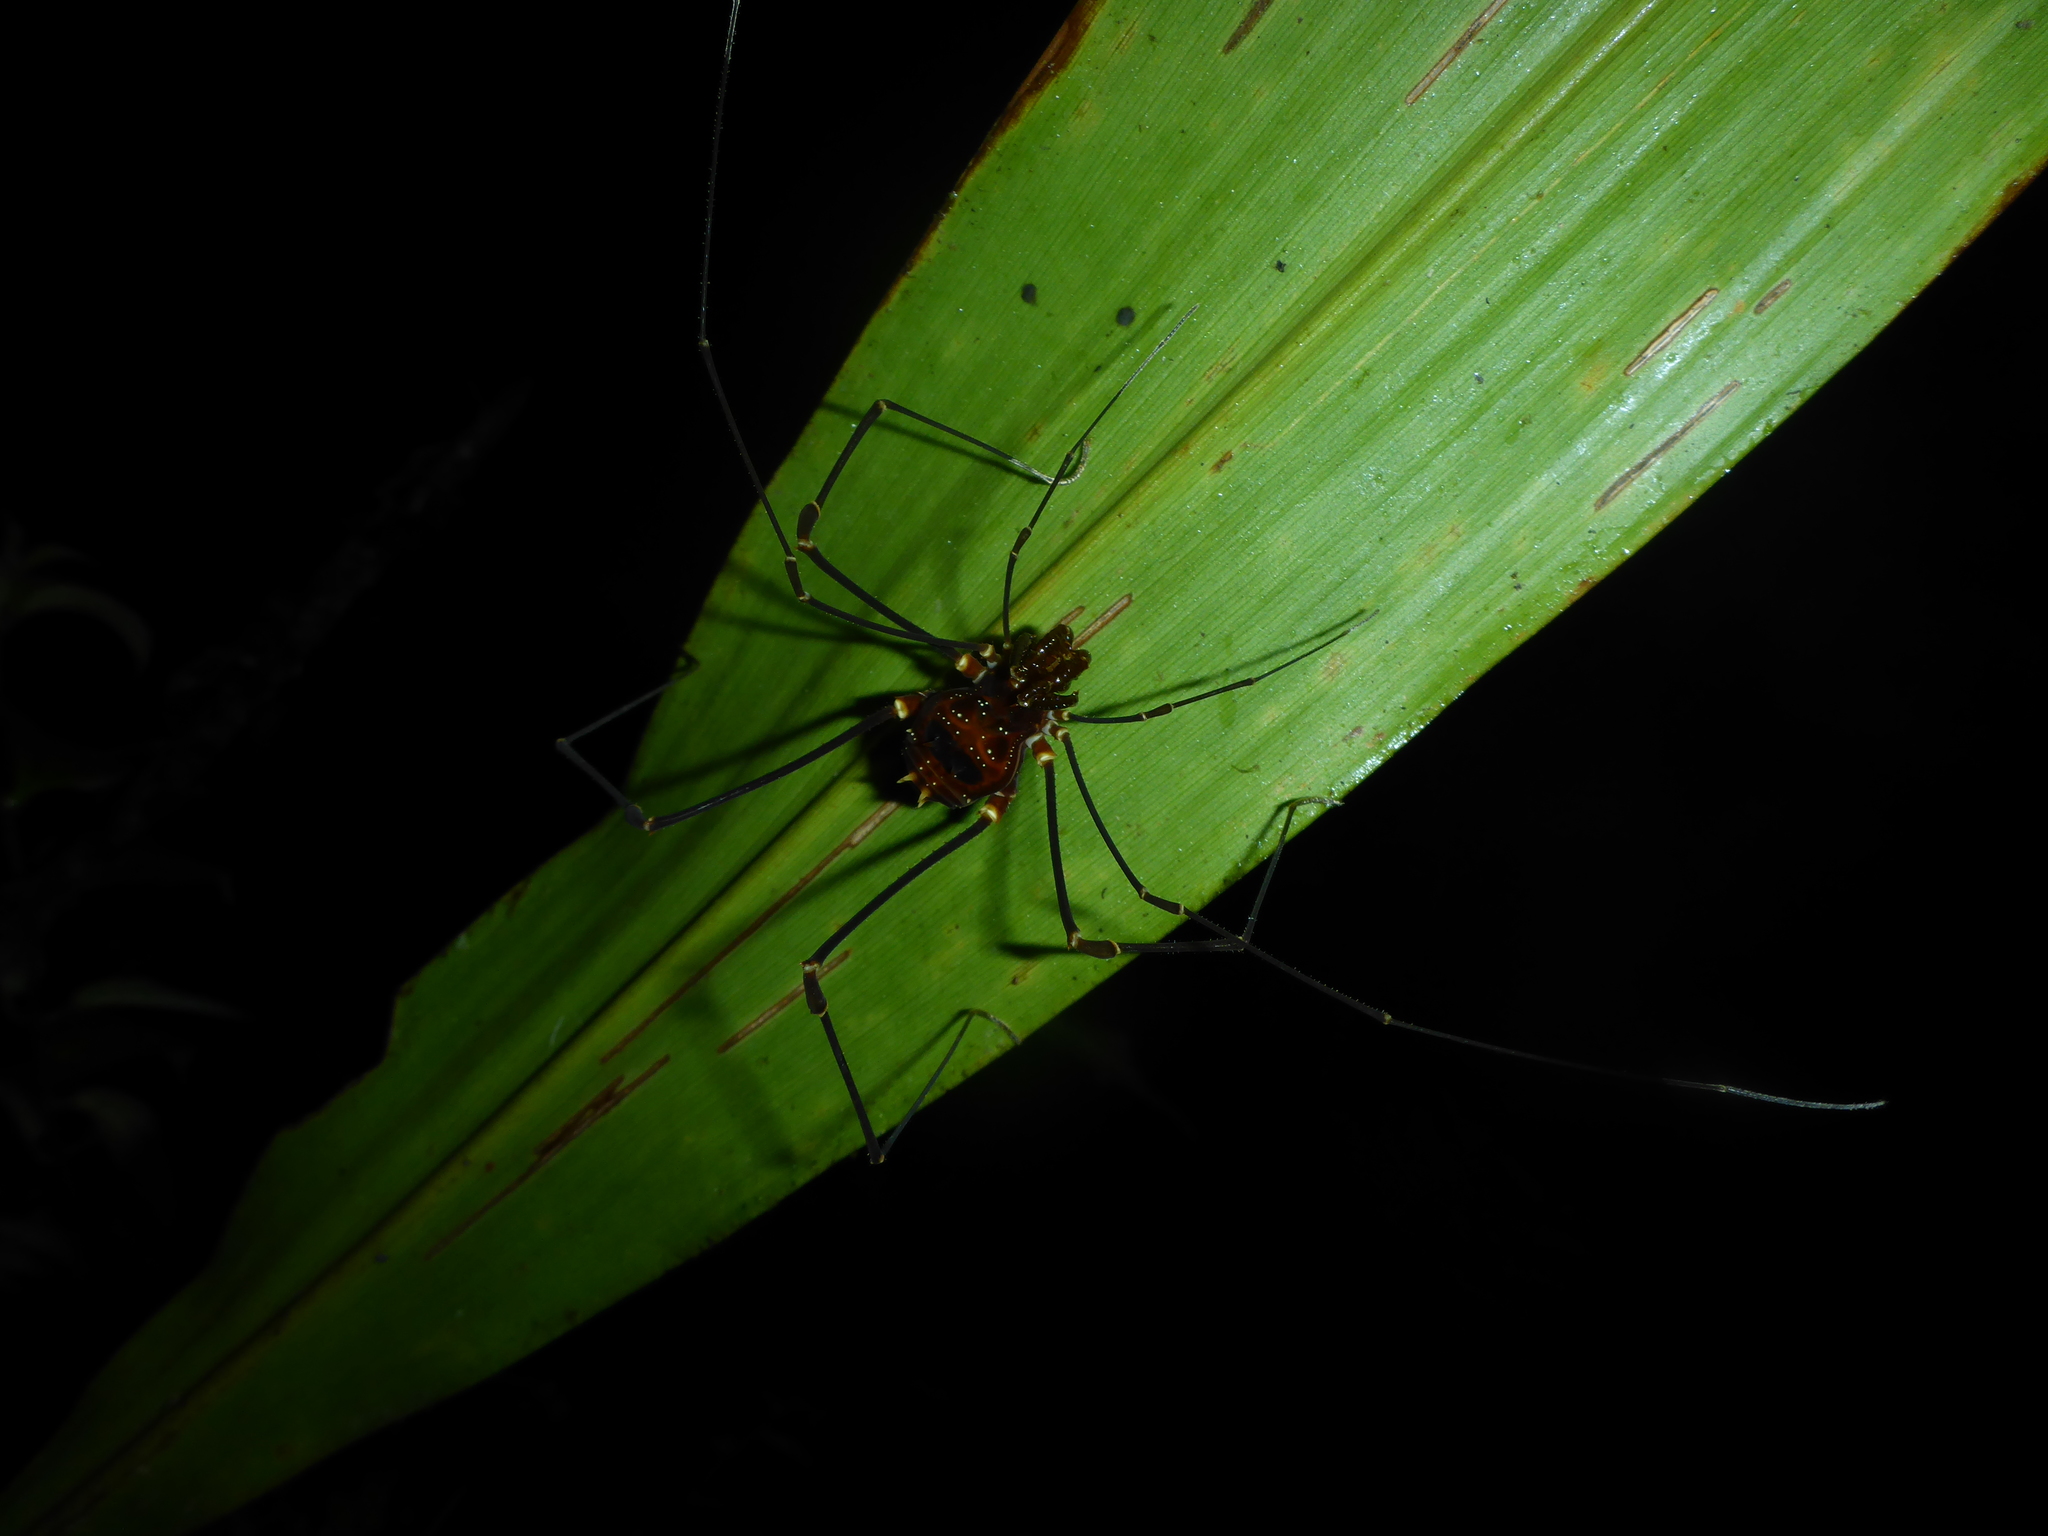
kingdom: Animalia
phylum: Arthropoda
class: Arachnida
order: Opiliones
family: Cranaidae
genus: Phareicranaus
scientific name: Phareicranaus lucifer
